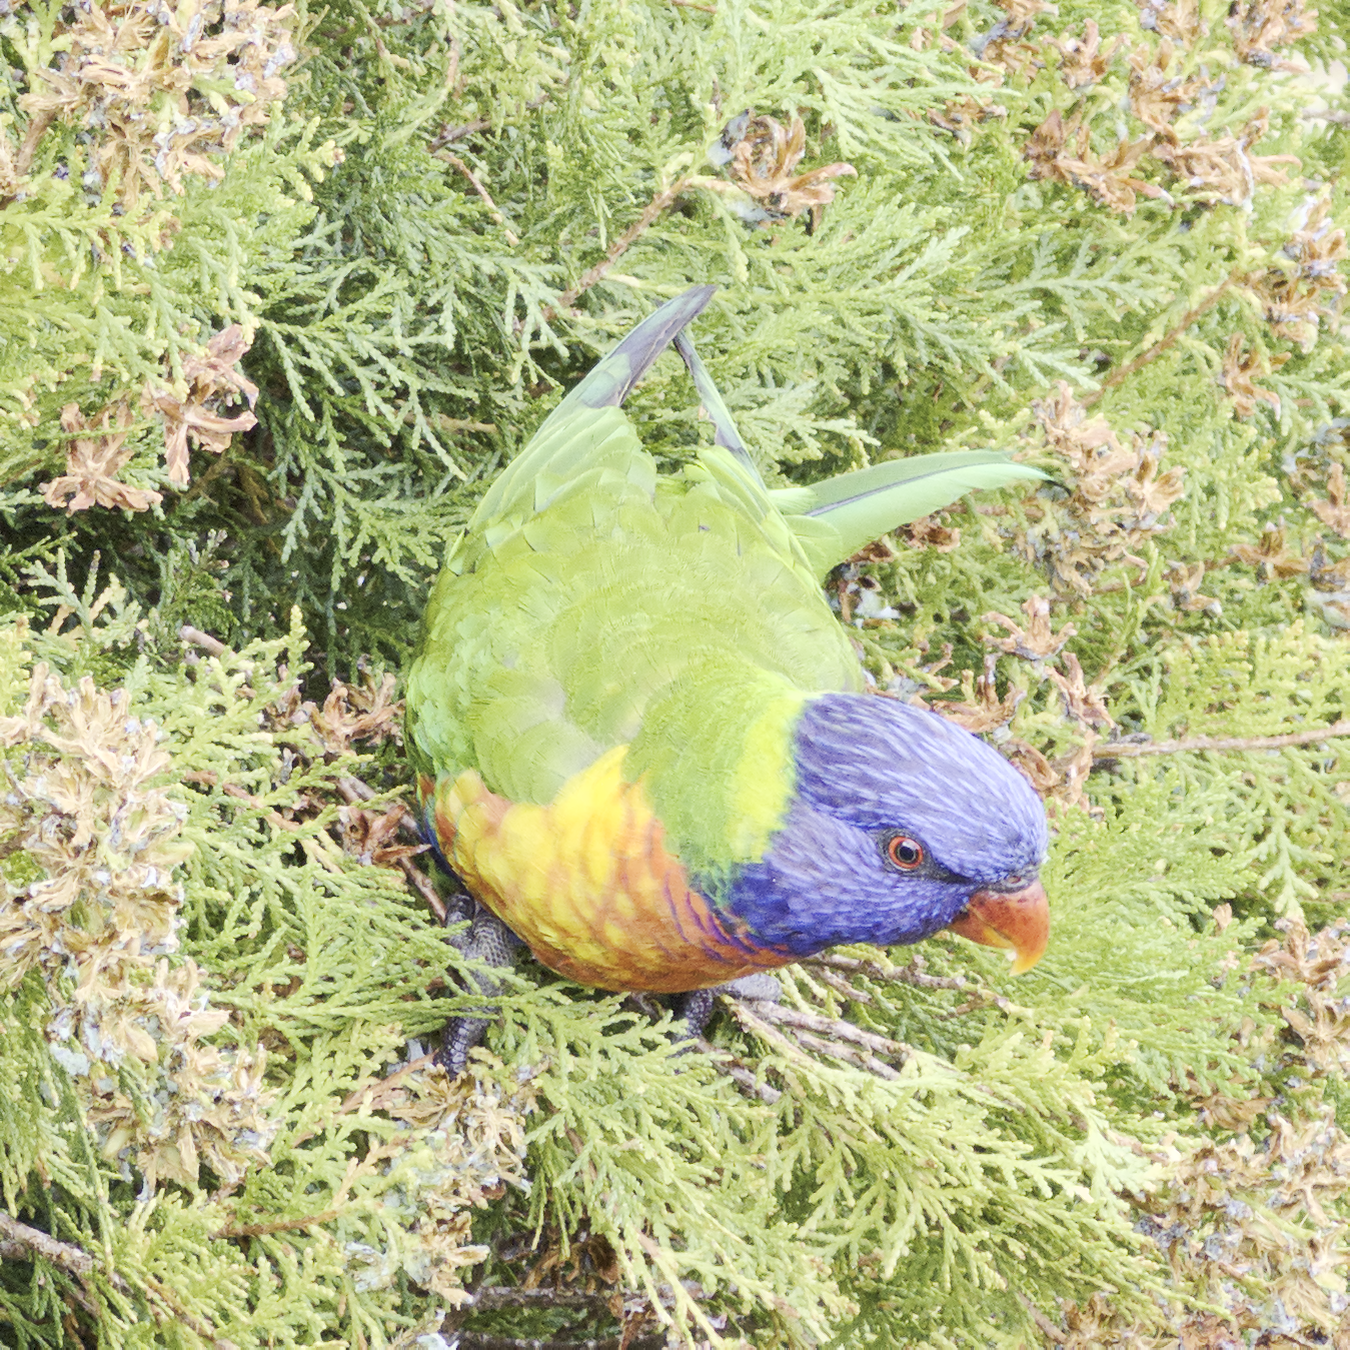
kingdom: Animalia
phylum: Chordata
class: Aves
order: Psittaciformes
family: Psittacidae
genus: Trichoglossus
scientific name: Trichoglossus haematodus
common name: Coconut lorikeet
